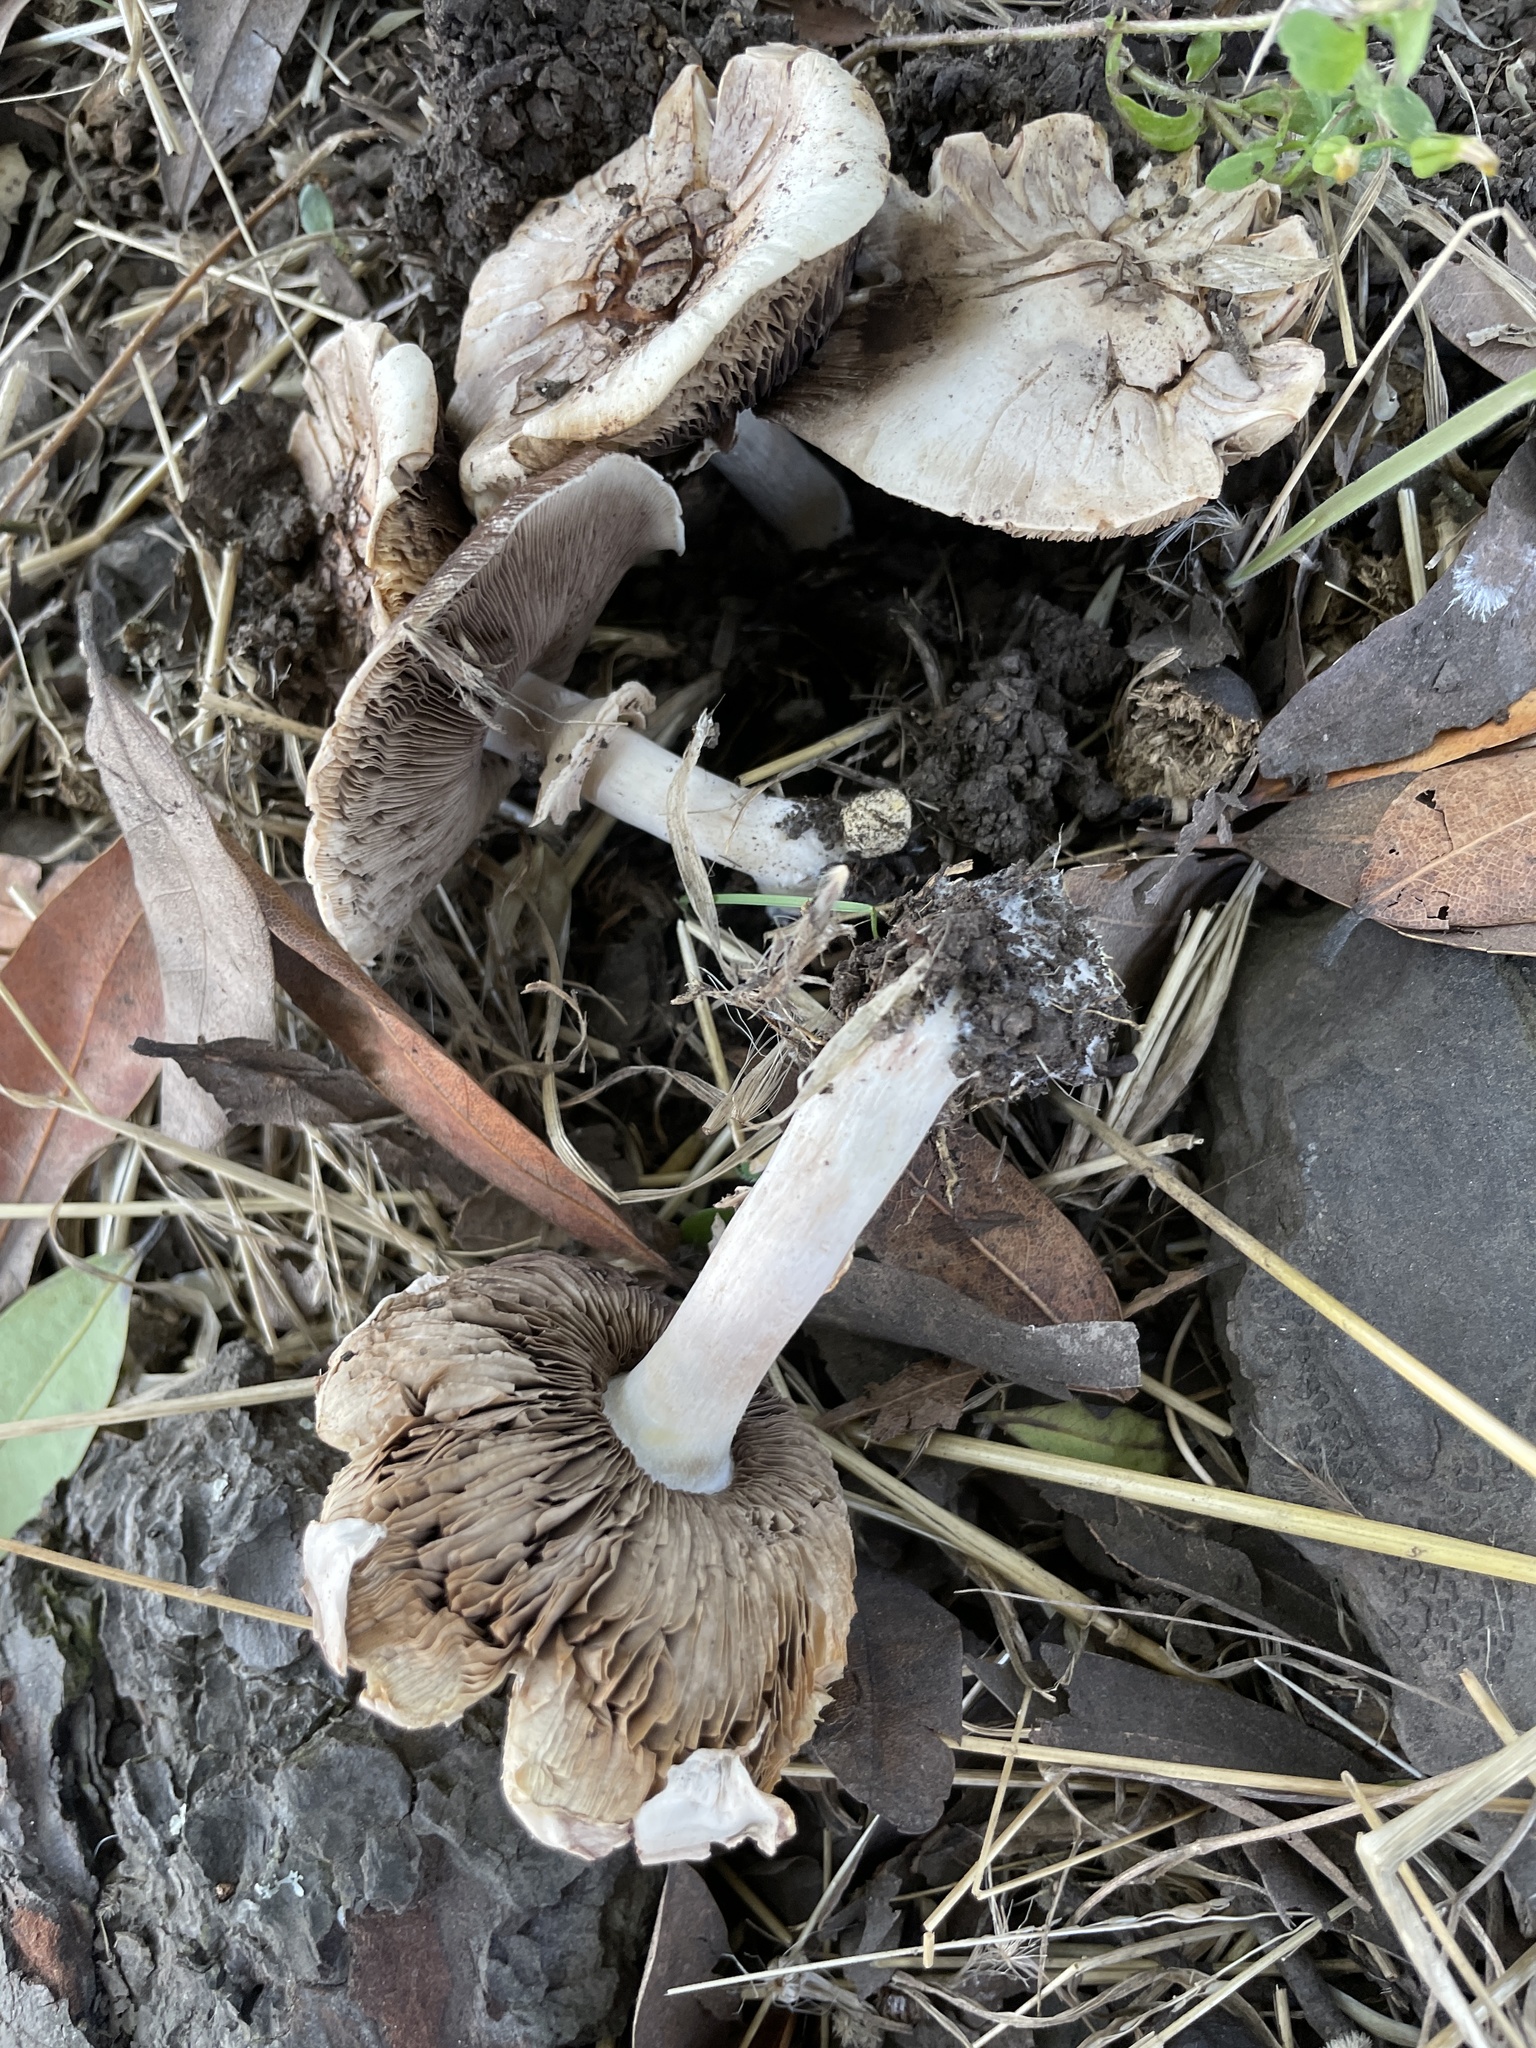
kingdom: Fungi
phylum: Basidiomycota
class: Agaricomycetes
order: Agaricales
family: Agaricaceae
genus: Agaricus
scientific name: Agaricus californicus
